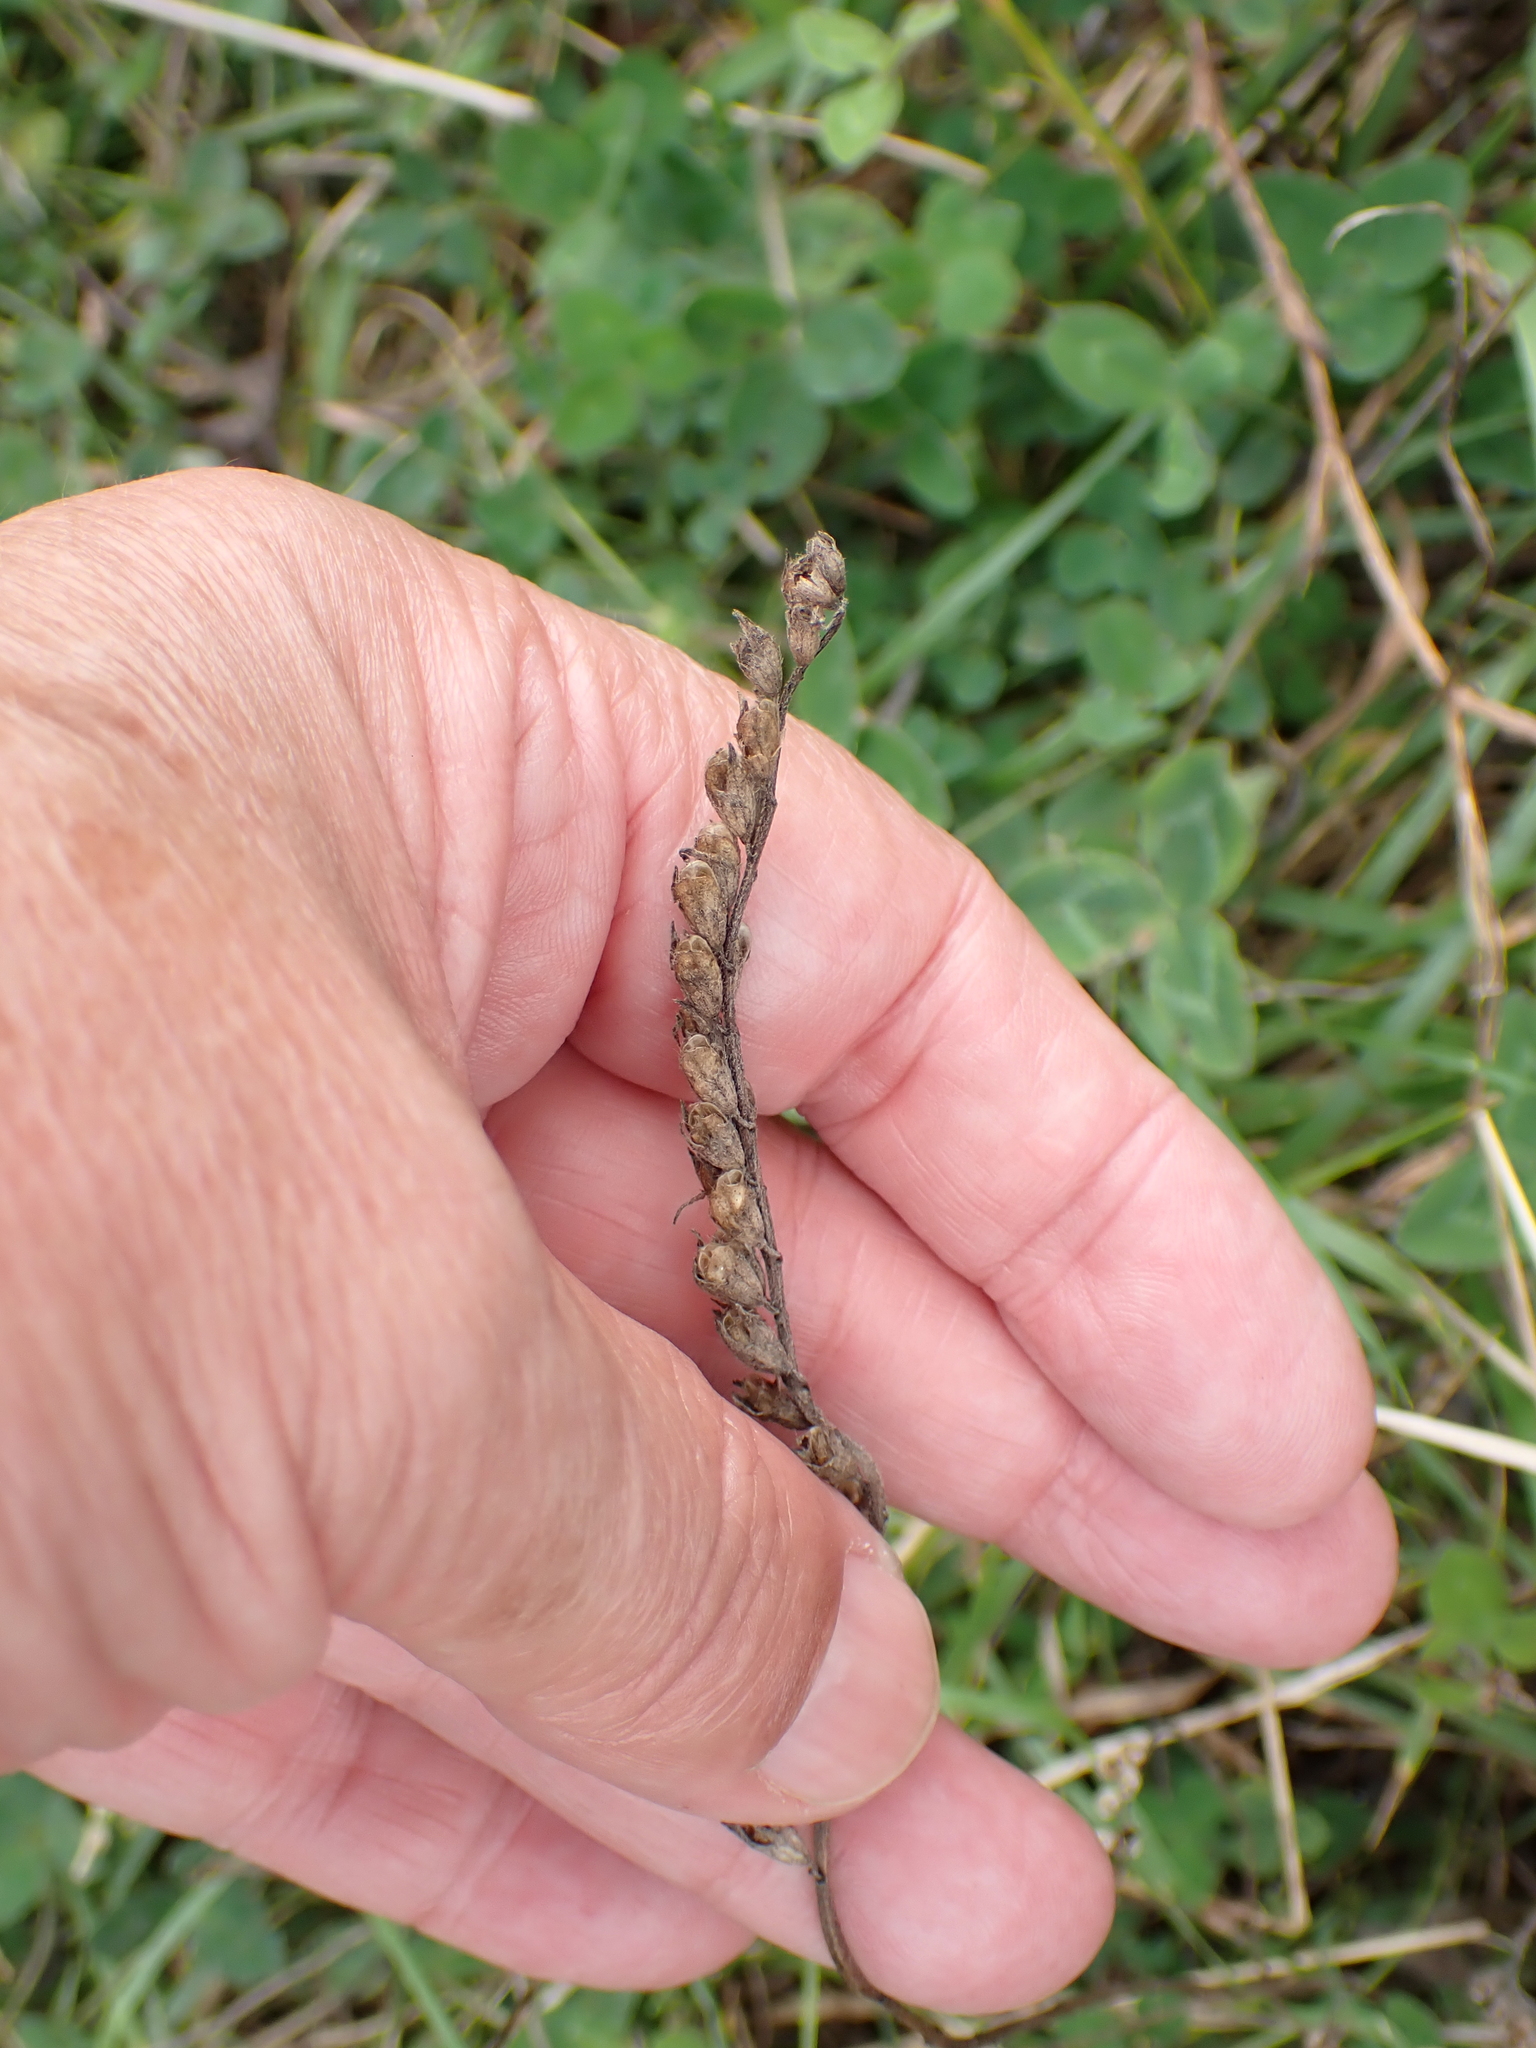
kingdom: Plantae
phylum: Tracheophyta
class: Magnoliopsida
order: Lamiales
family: Orobanchaceae
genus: Odontites
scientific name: Odontites vulgaris
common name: Broomrape
